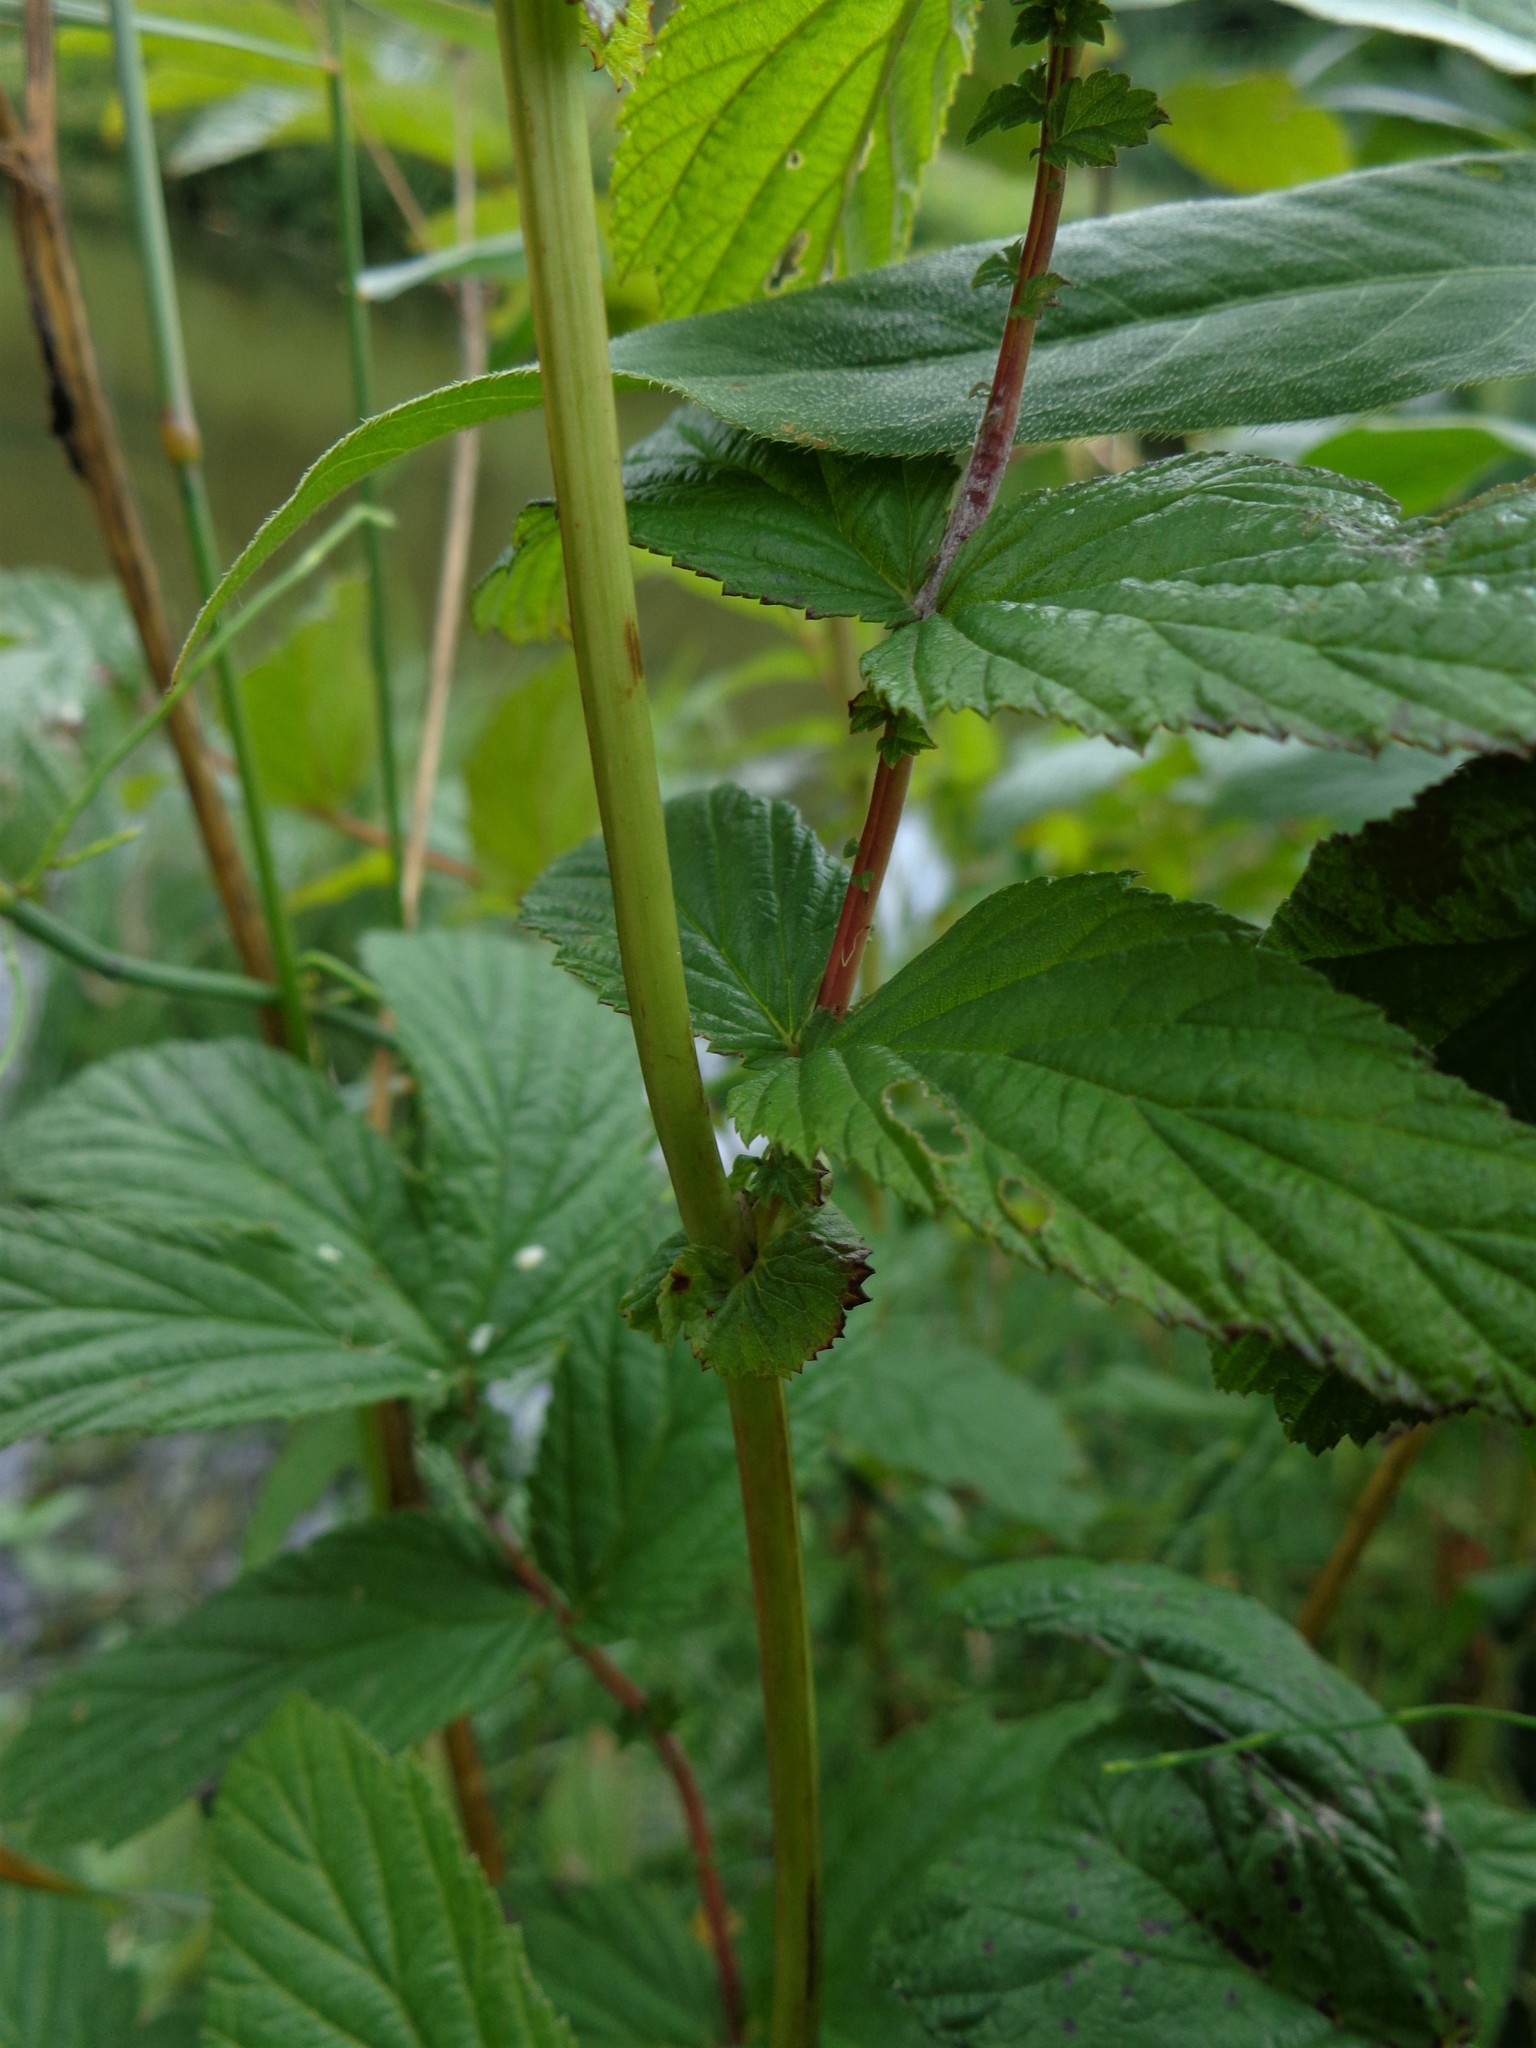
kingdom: Plantae
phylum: Tracheophyta
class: Magnoliopsida
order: Rosales
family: Rosaceae
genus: Filipendula
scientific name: Filipendula ulmaria
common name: Meadowsweet
